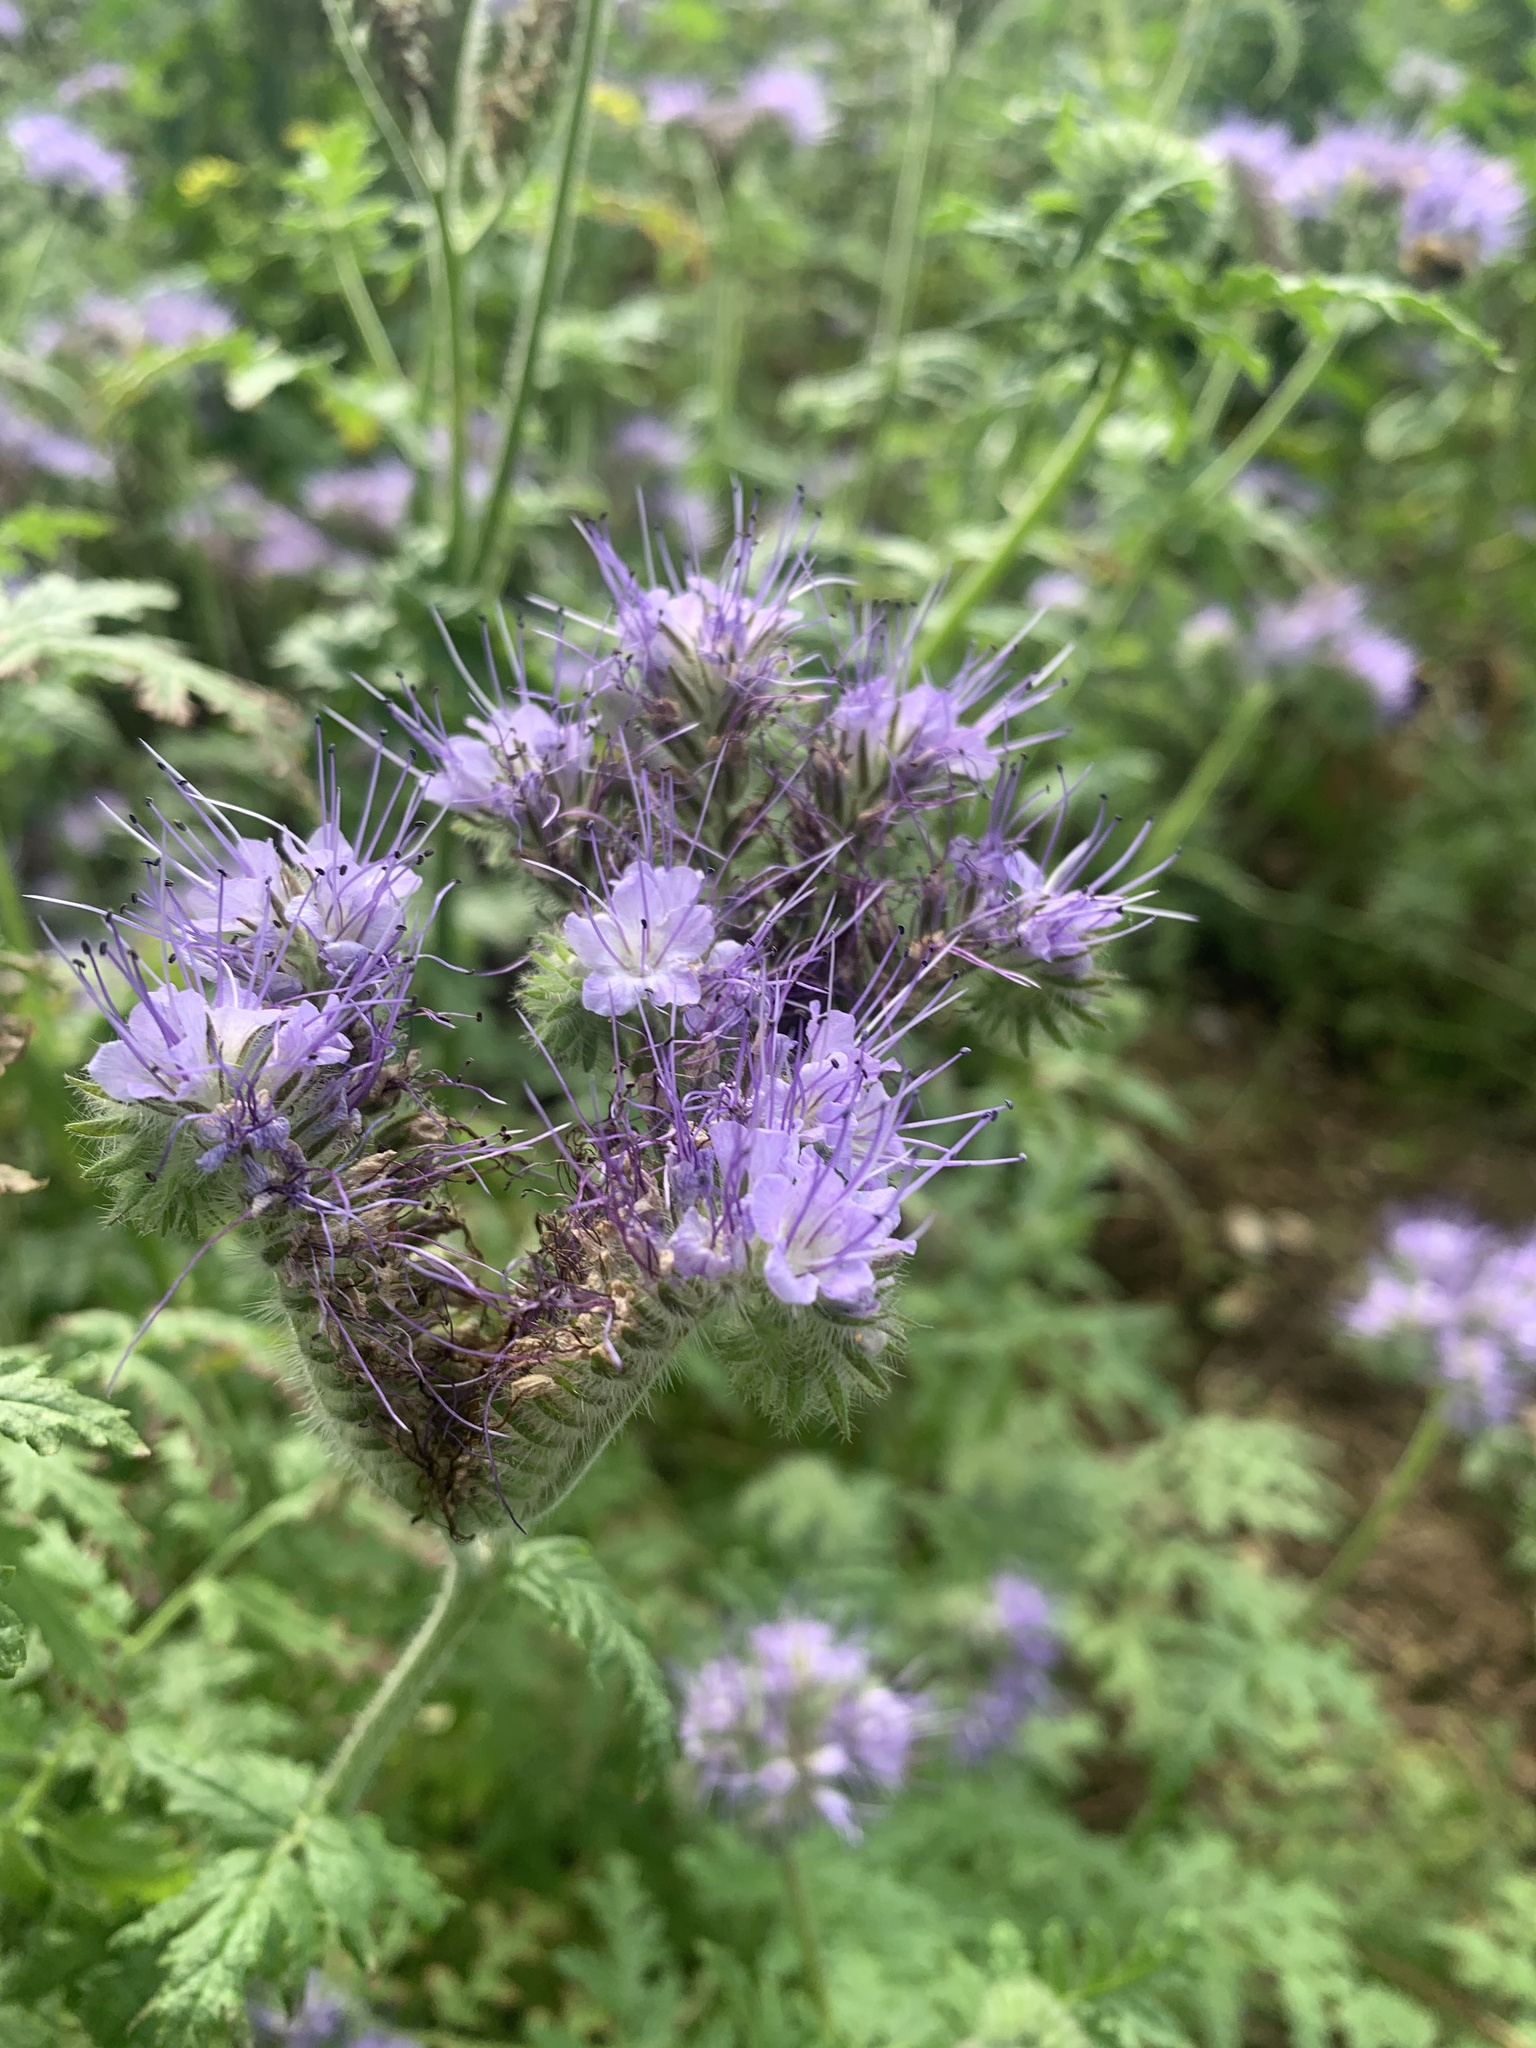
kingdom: Plantae
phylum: Tracheophyta
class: Magnoliopsida
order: Boraginales
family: Hydrophyllaceae
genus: Phacelia
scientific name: Phacelia tanacetifolia
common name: Phacelia
